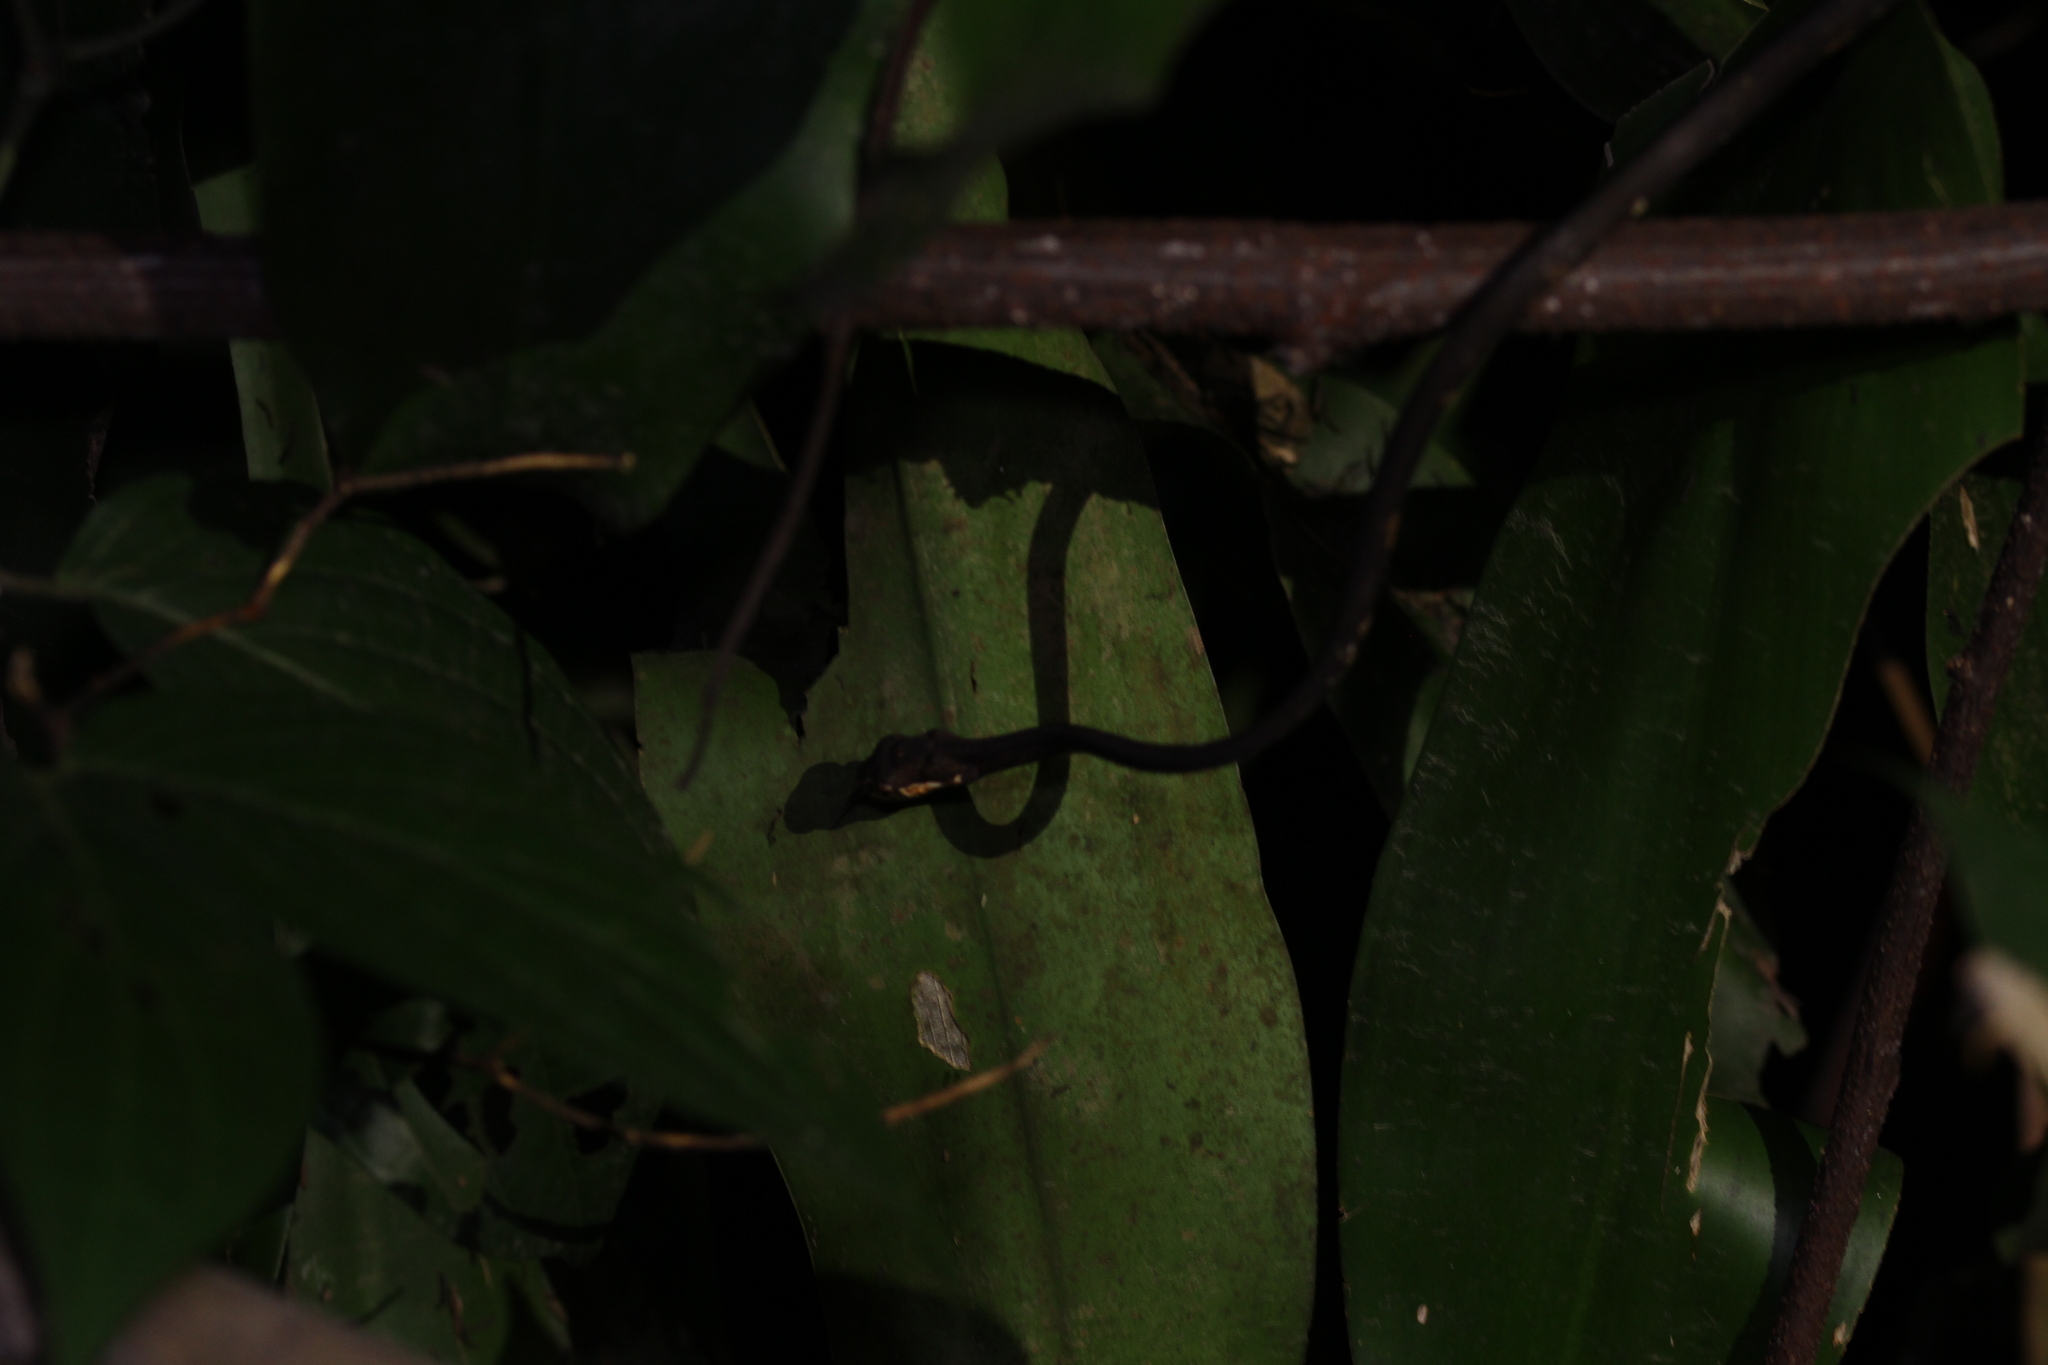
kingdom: Animalia
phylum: Chordata
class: Squamata
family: Pareidae
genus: Aplopeltura
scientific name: Aplopeltura boa
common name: Blunthead slug snake
